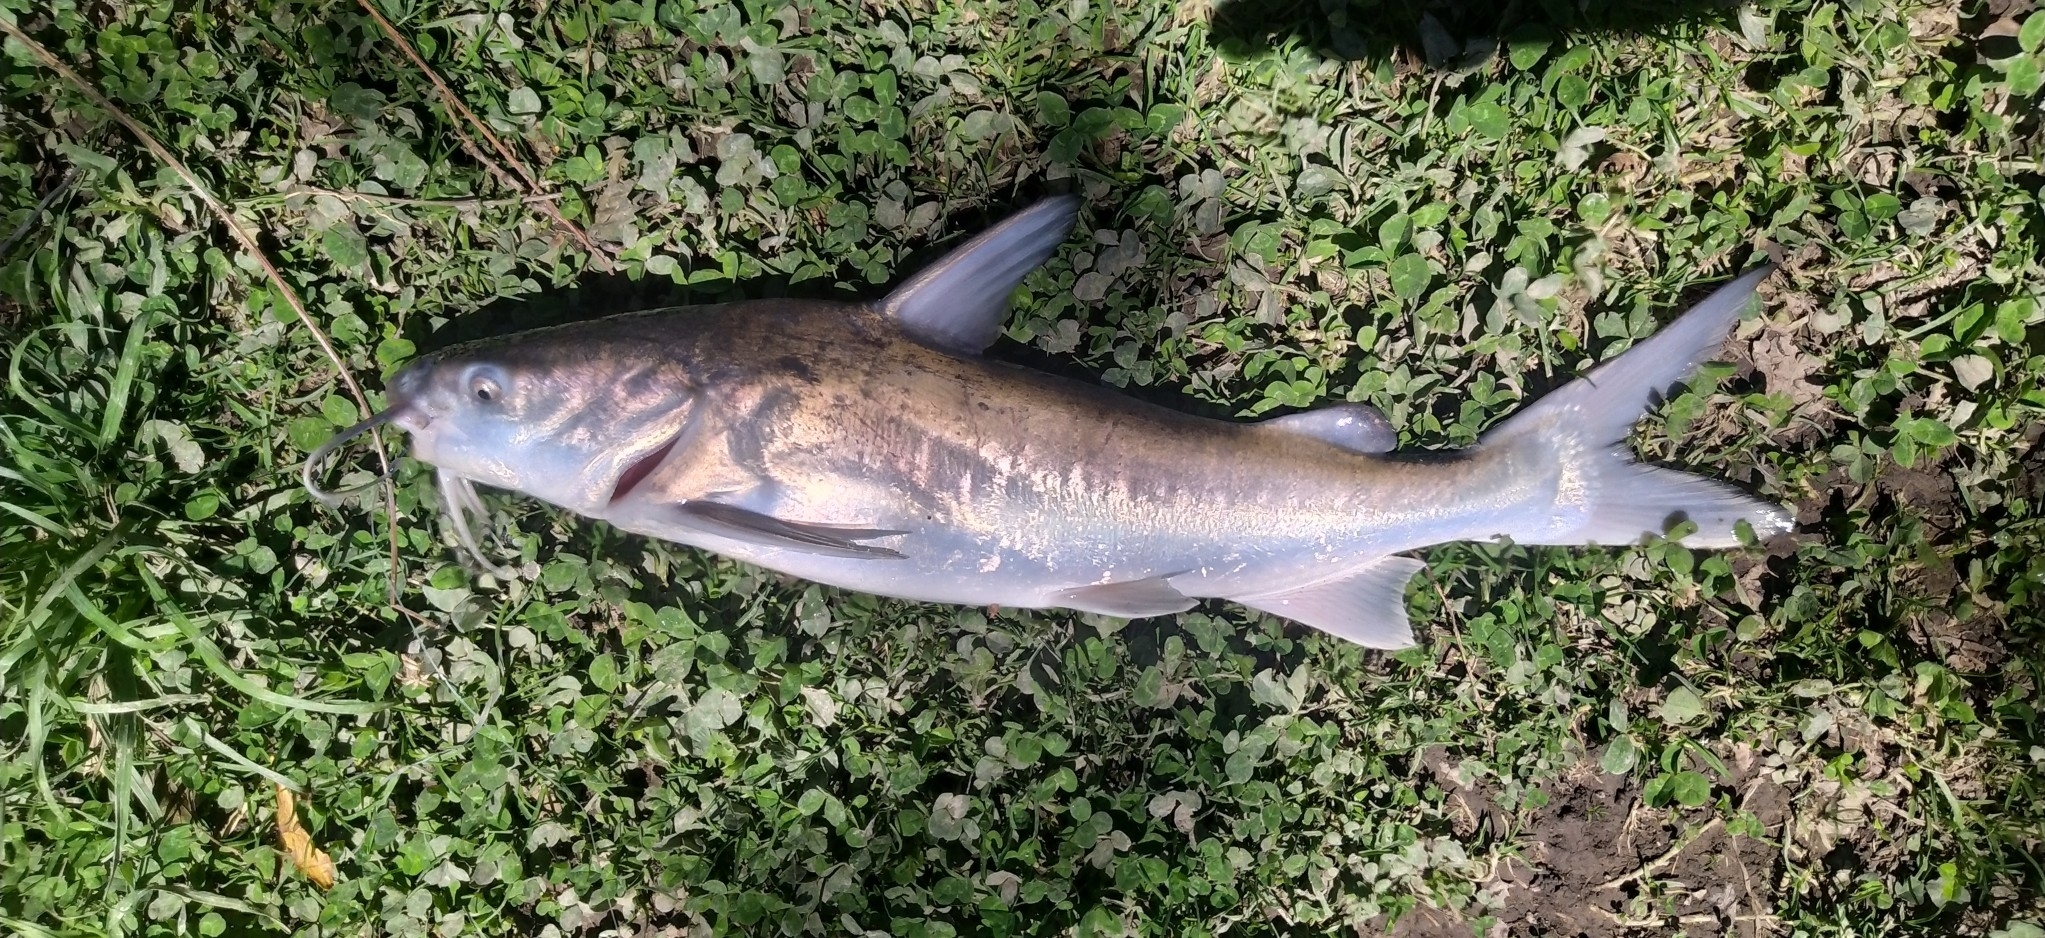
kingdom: Animalia
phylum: Chordata
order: Siluriformes
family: Ariidae
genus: Genidens
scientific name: Genidens barbus
